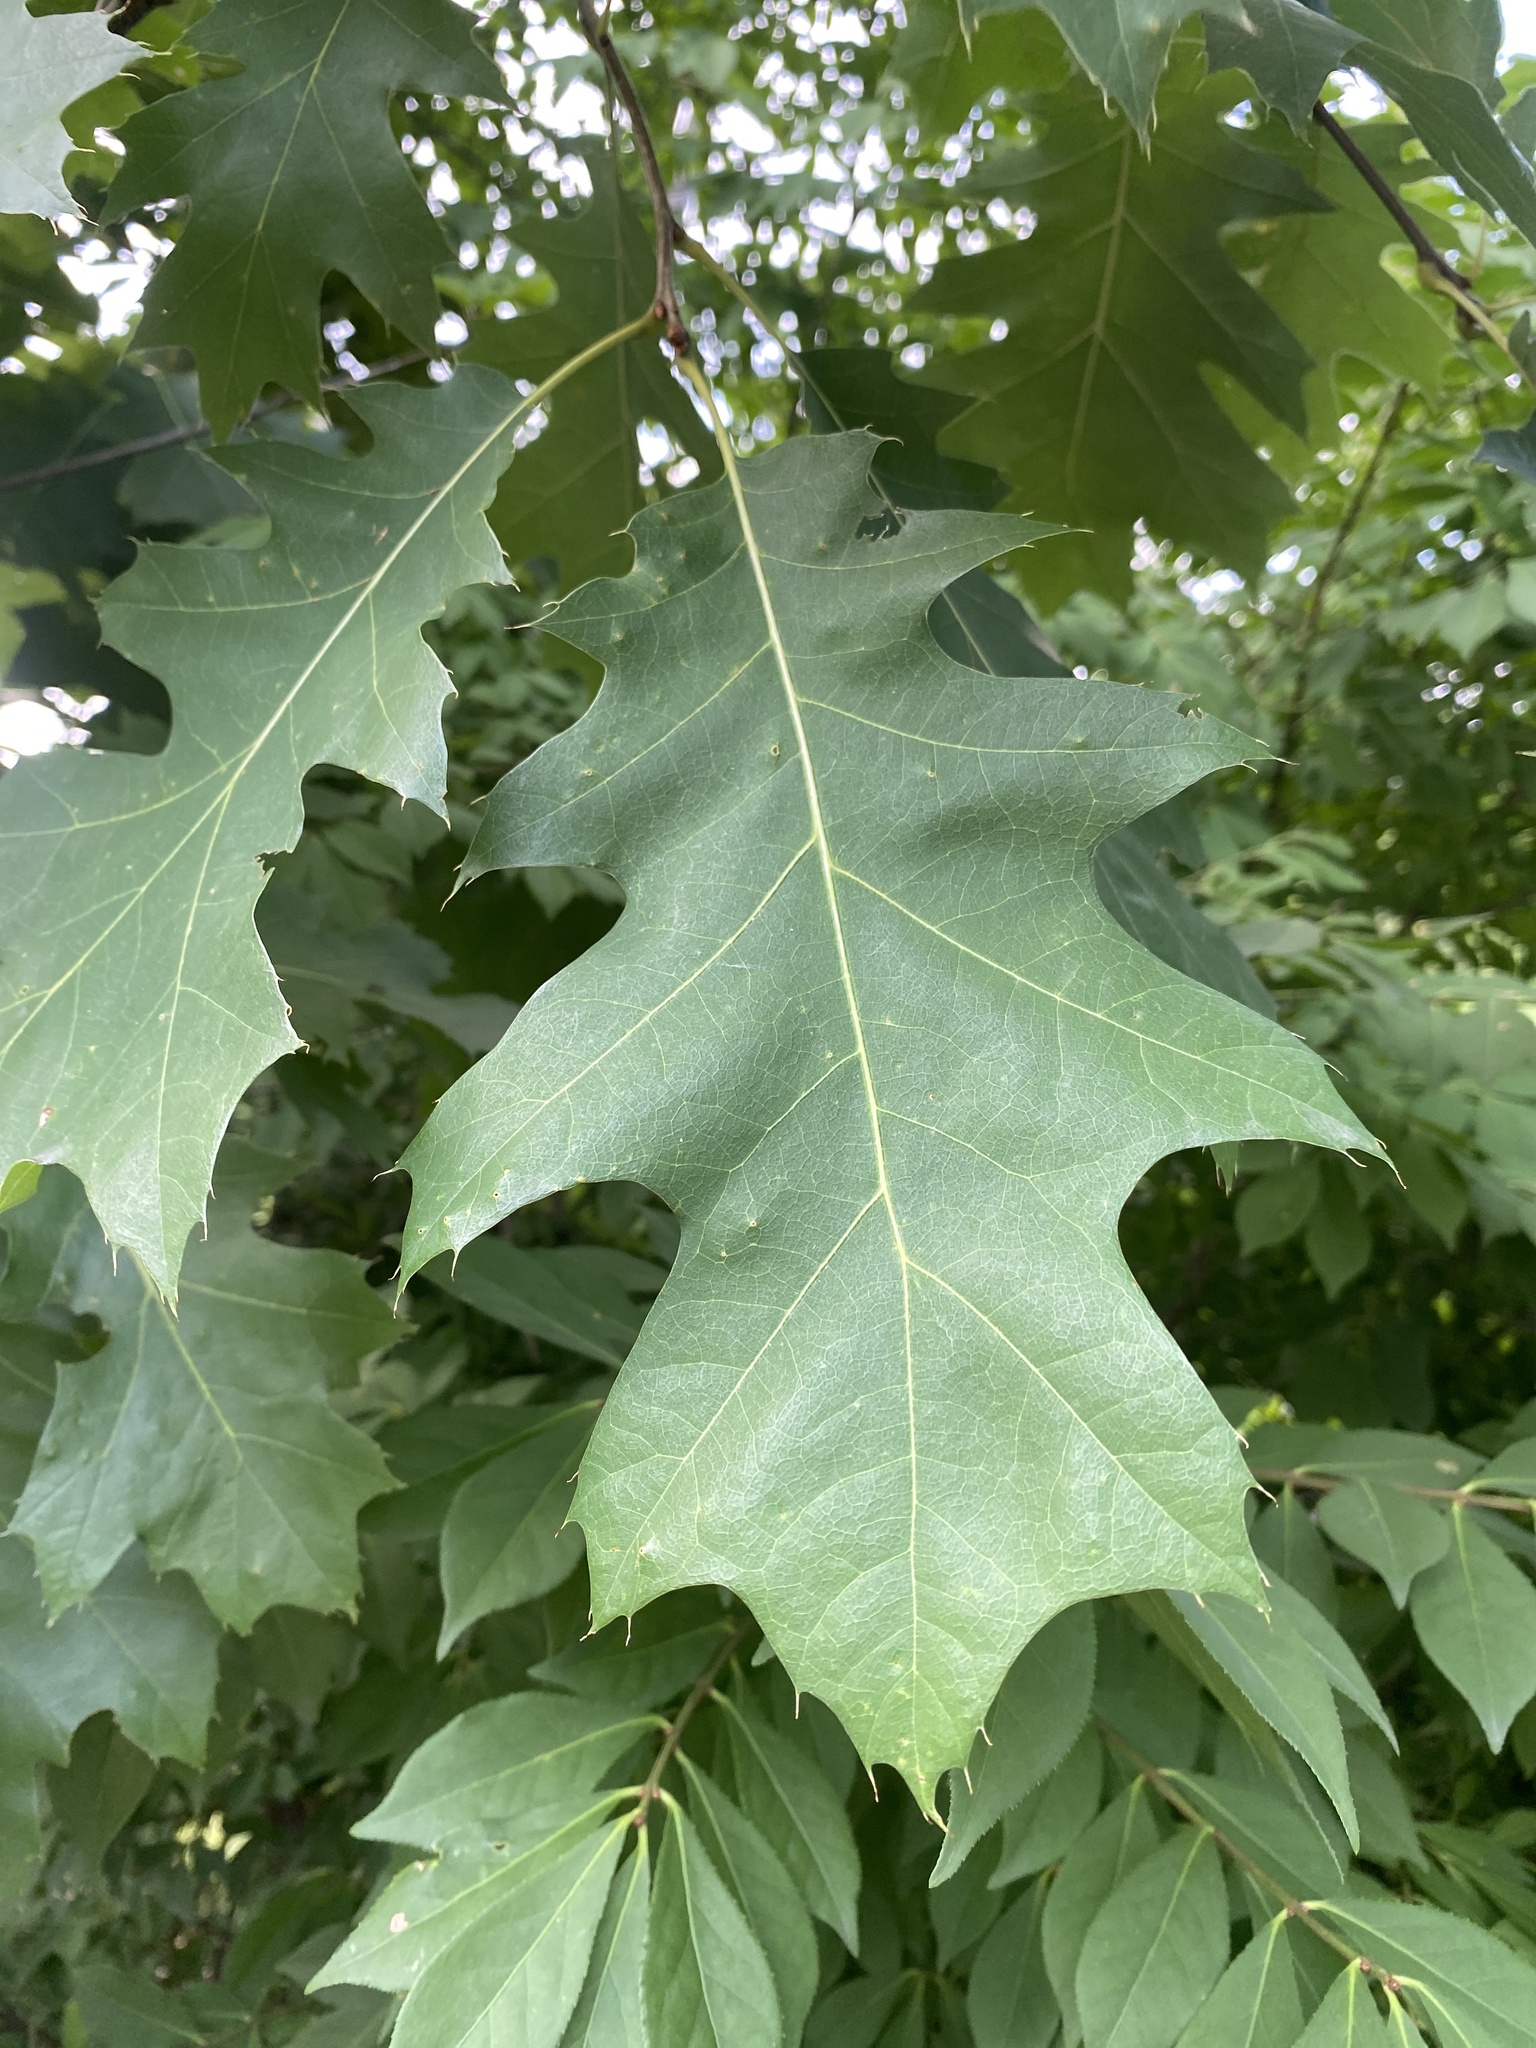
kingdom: Plantae
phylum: Tracheophyta
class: Magnoliopsida
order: Fagales
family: Fagaceae
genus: Quercus
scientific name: Quercus rubra
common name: Red oak
